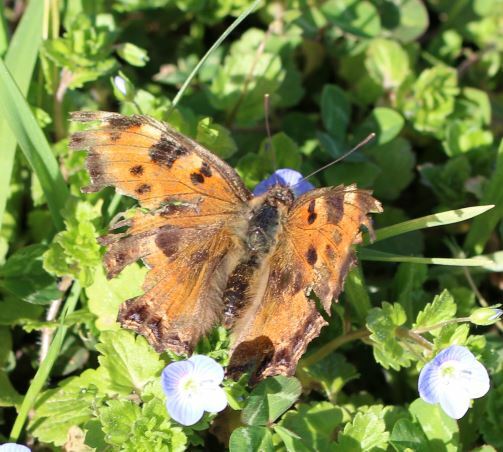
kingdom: Animalia
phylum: Arthropoda
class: Insecta
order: Lepidoptera
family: Nymphalidae
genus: Nymphalis
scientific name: Nymphalis polychloros
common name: Large tortoiseshell
